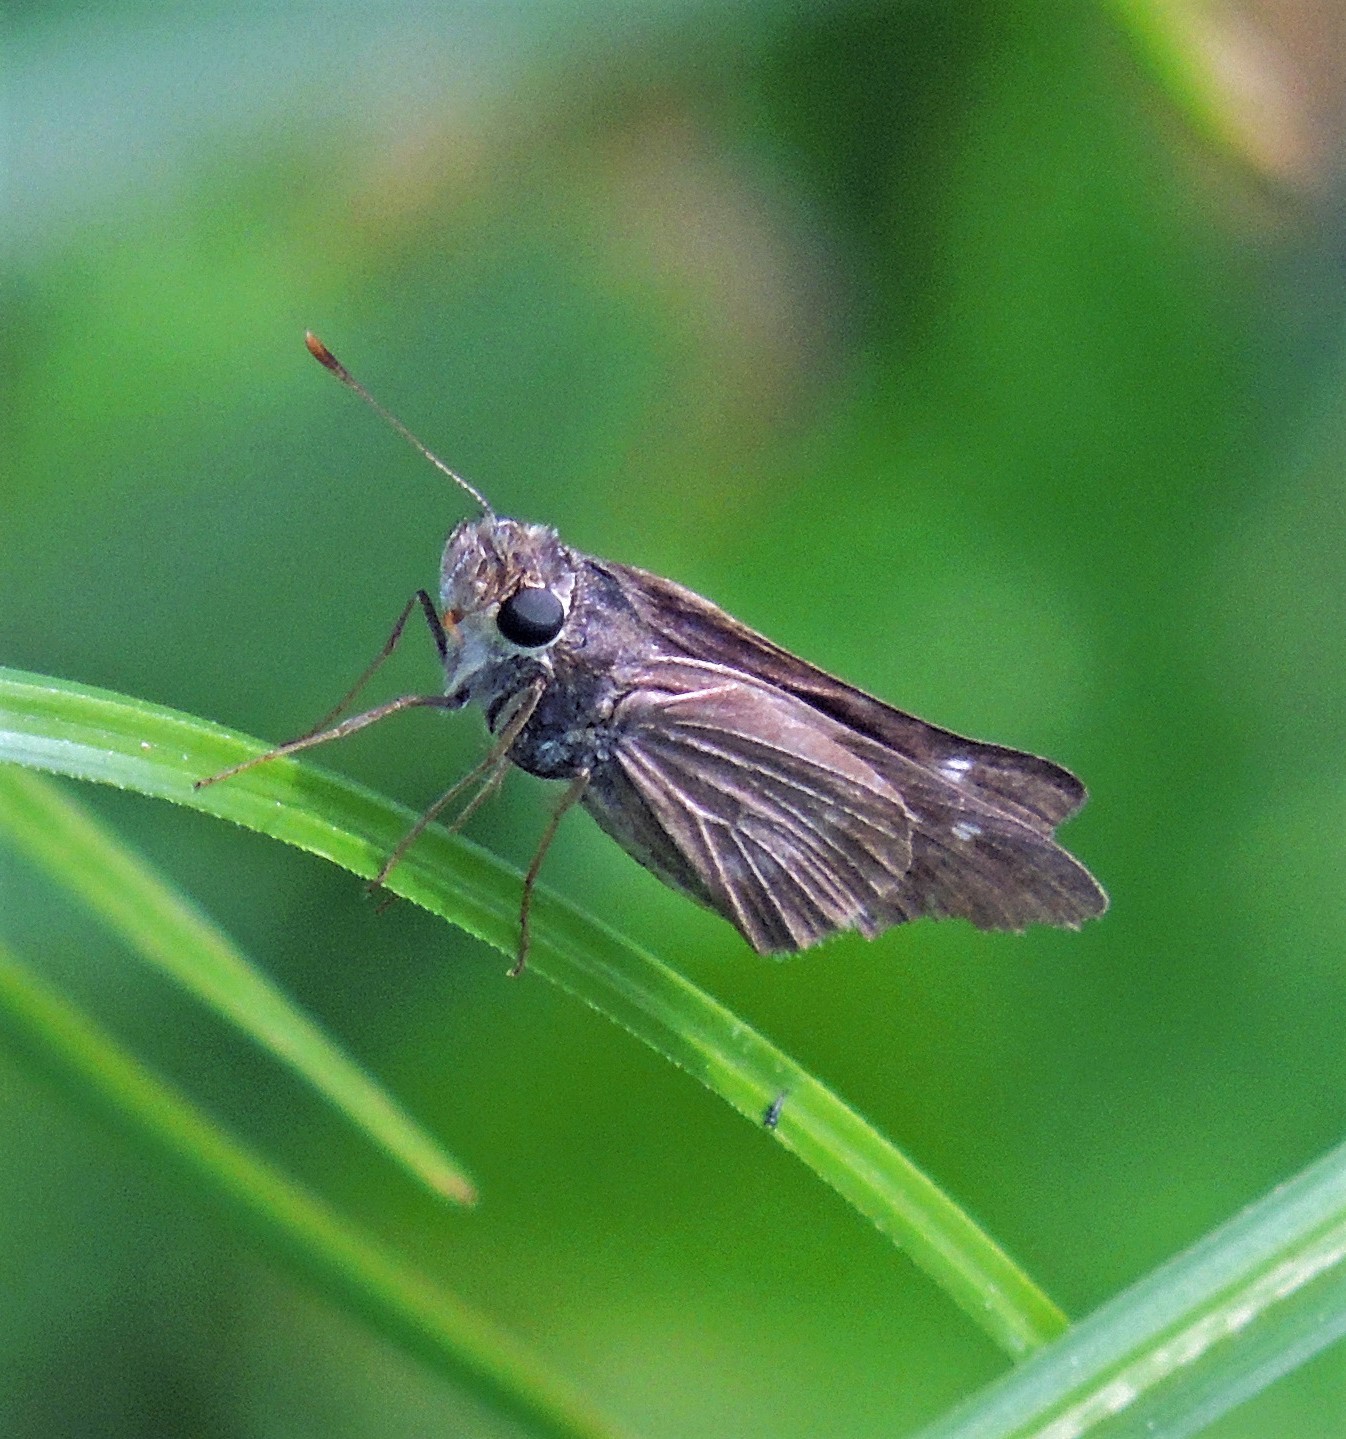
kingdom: Animalia
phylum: Arthropoda
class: Insecta
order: Lepidoptera
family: Hesperiidae
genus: Panoquina
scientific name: Panoquina ocola
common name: Ocola skipper
